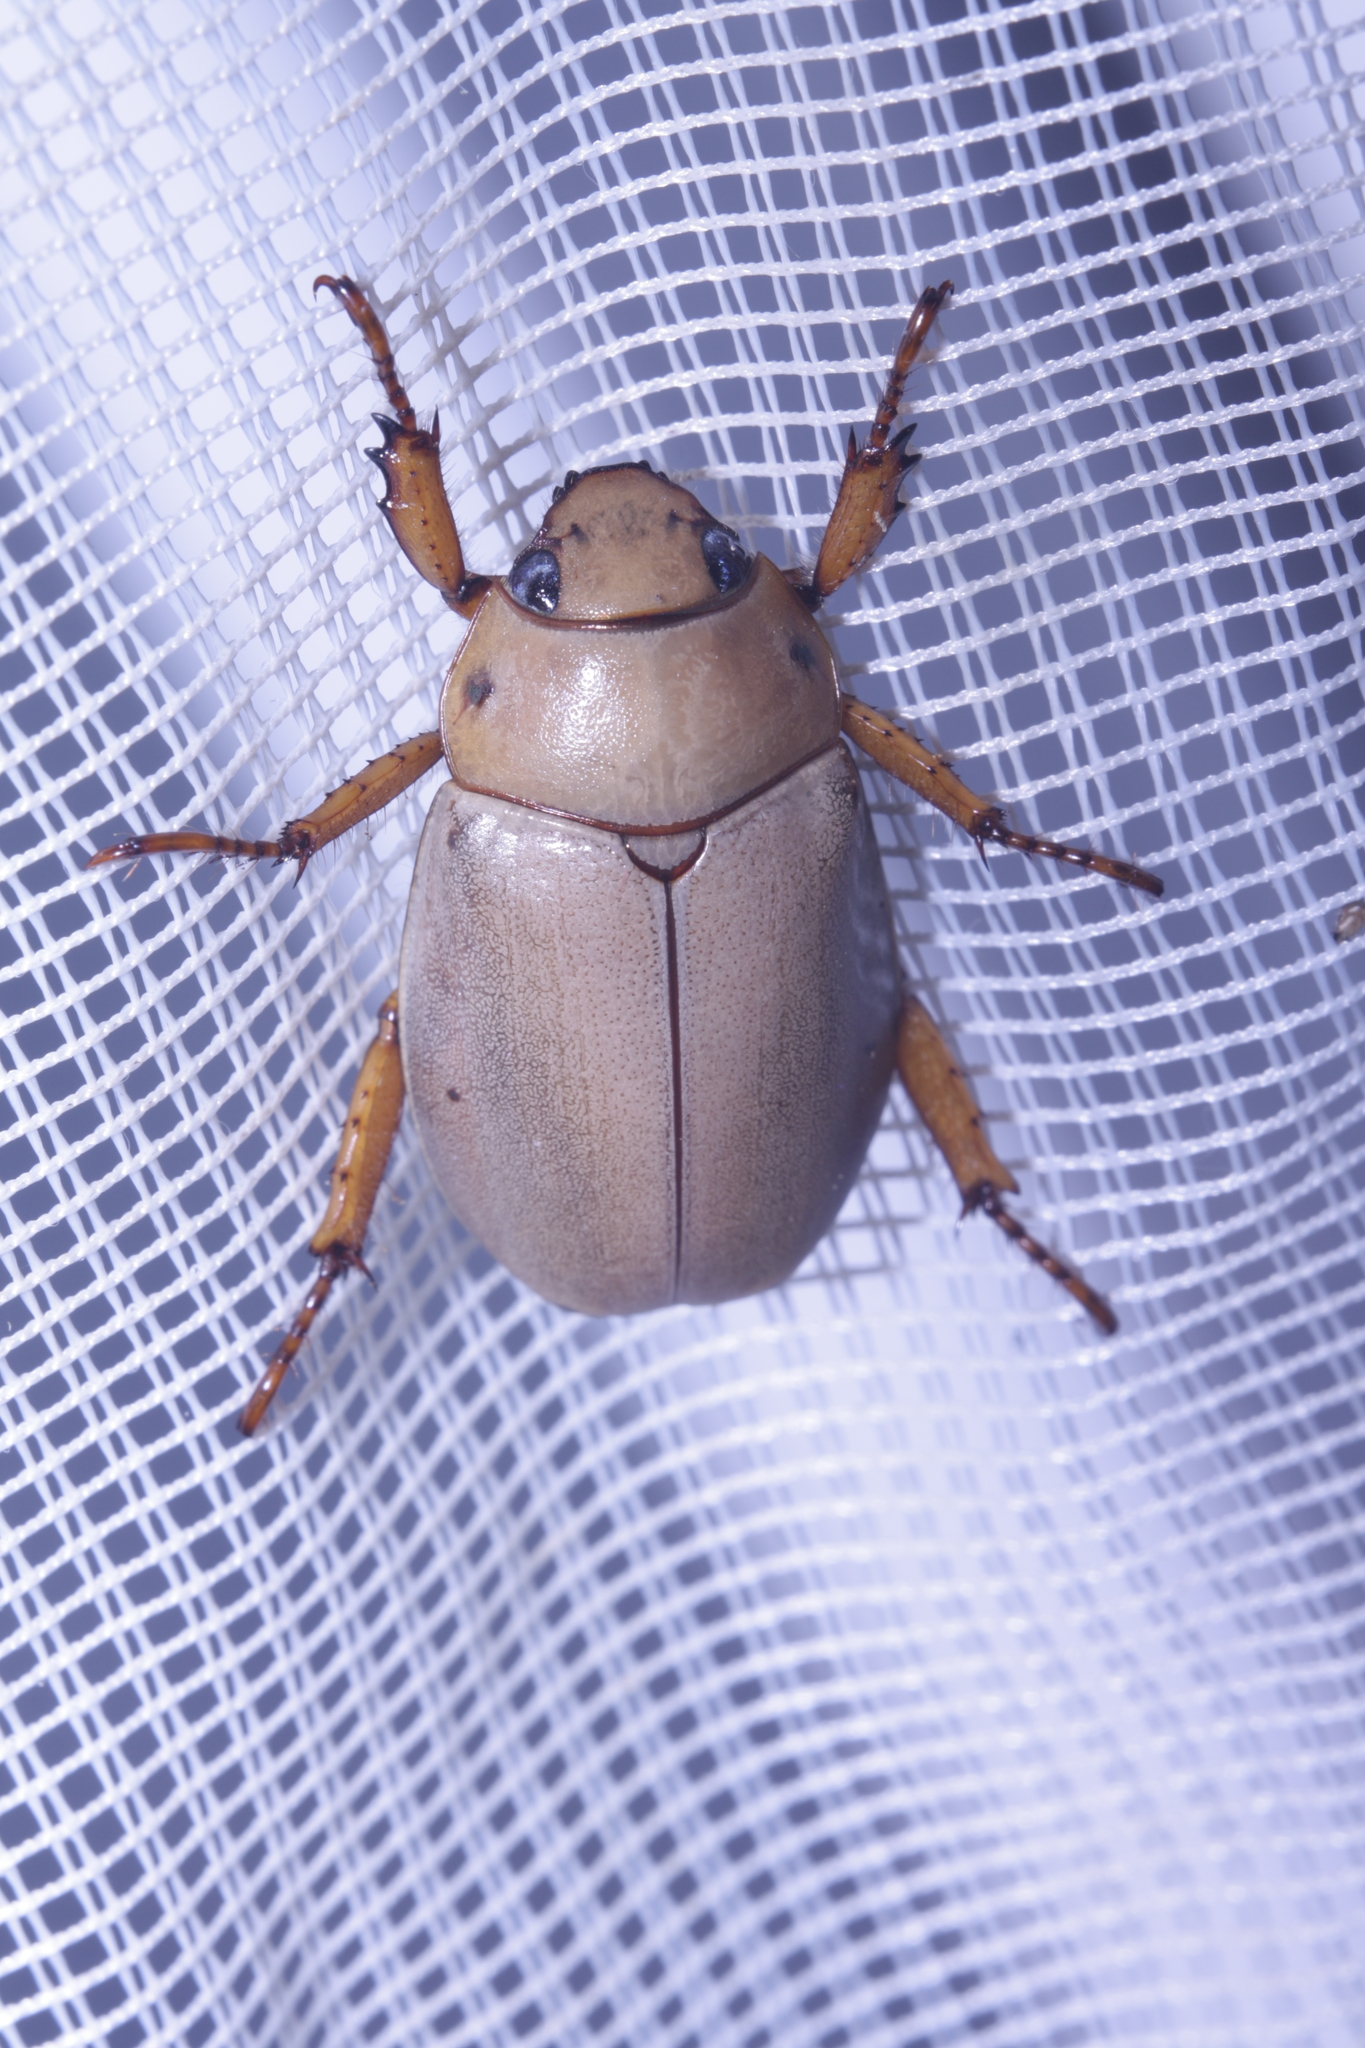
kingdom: Animalia
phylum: Arthropoda
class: Insecta
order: Coleoptera
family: Scarabaeidae
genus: Pelidnota
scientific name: Pelidnota notata
